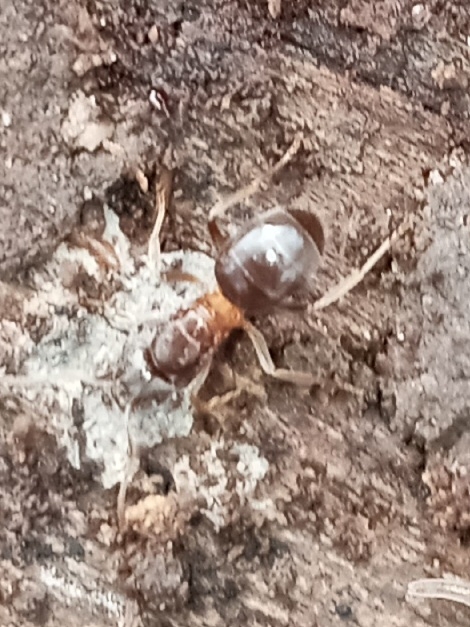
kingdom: Animalia
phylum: Arthropoda
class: Insecta
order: Hymenoptera
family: Formicidae
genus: Lasius
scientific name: Lasius aphidicola
